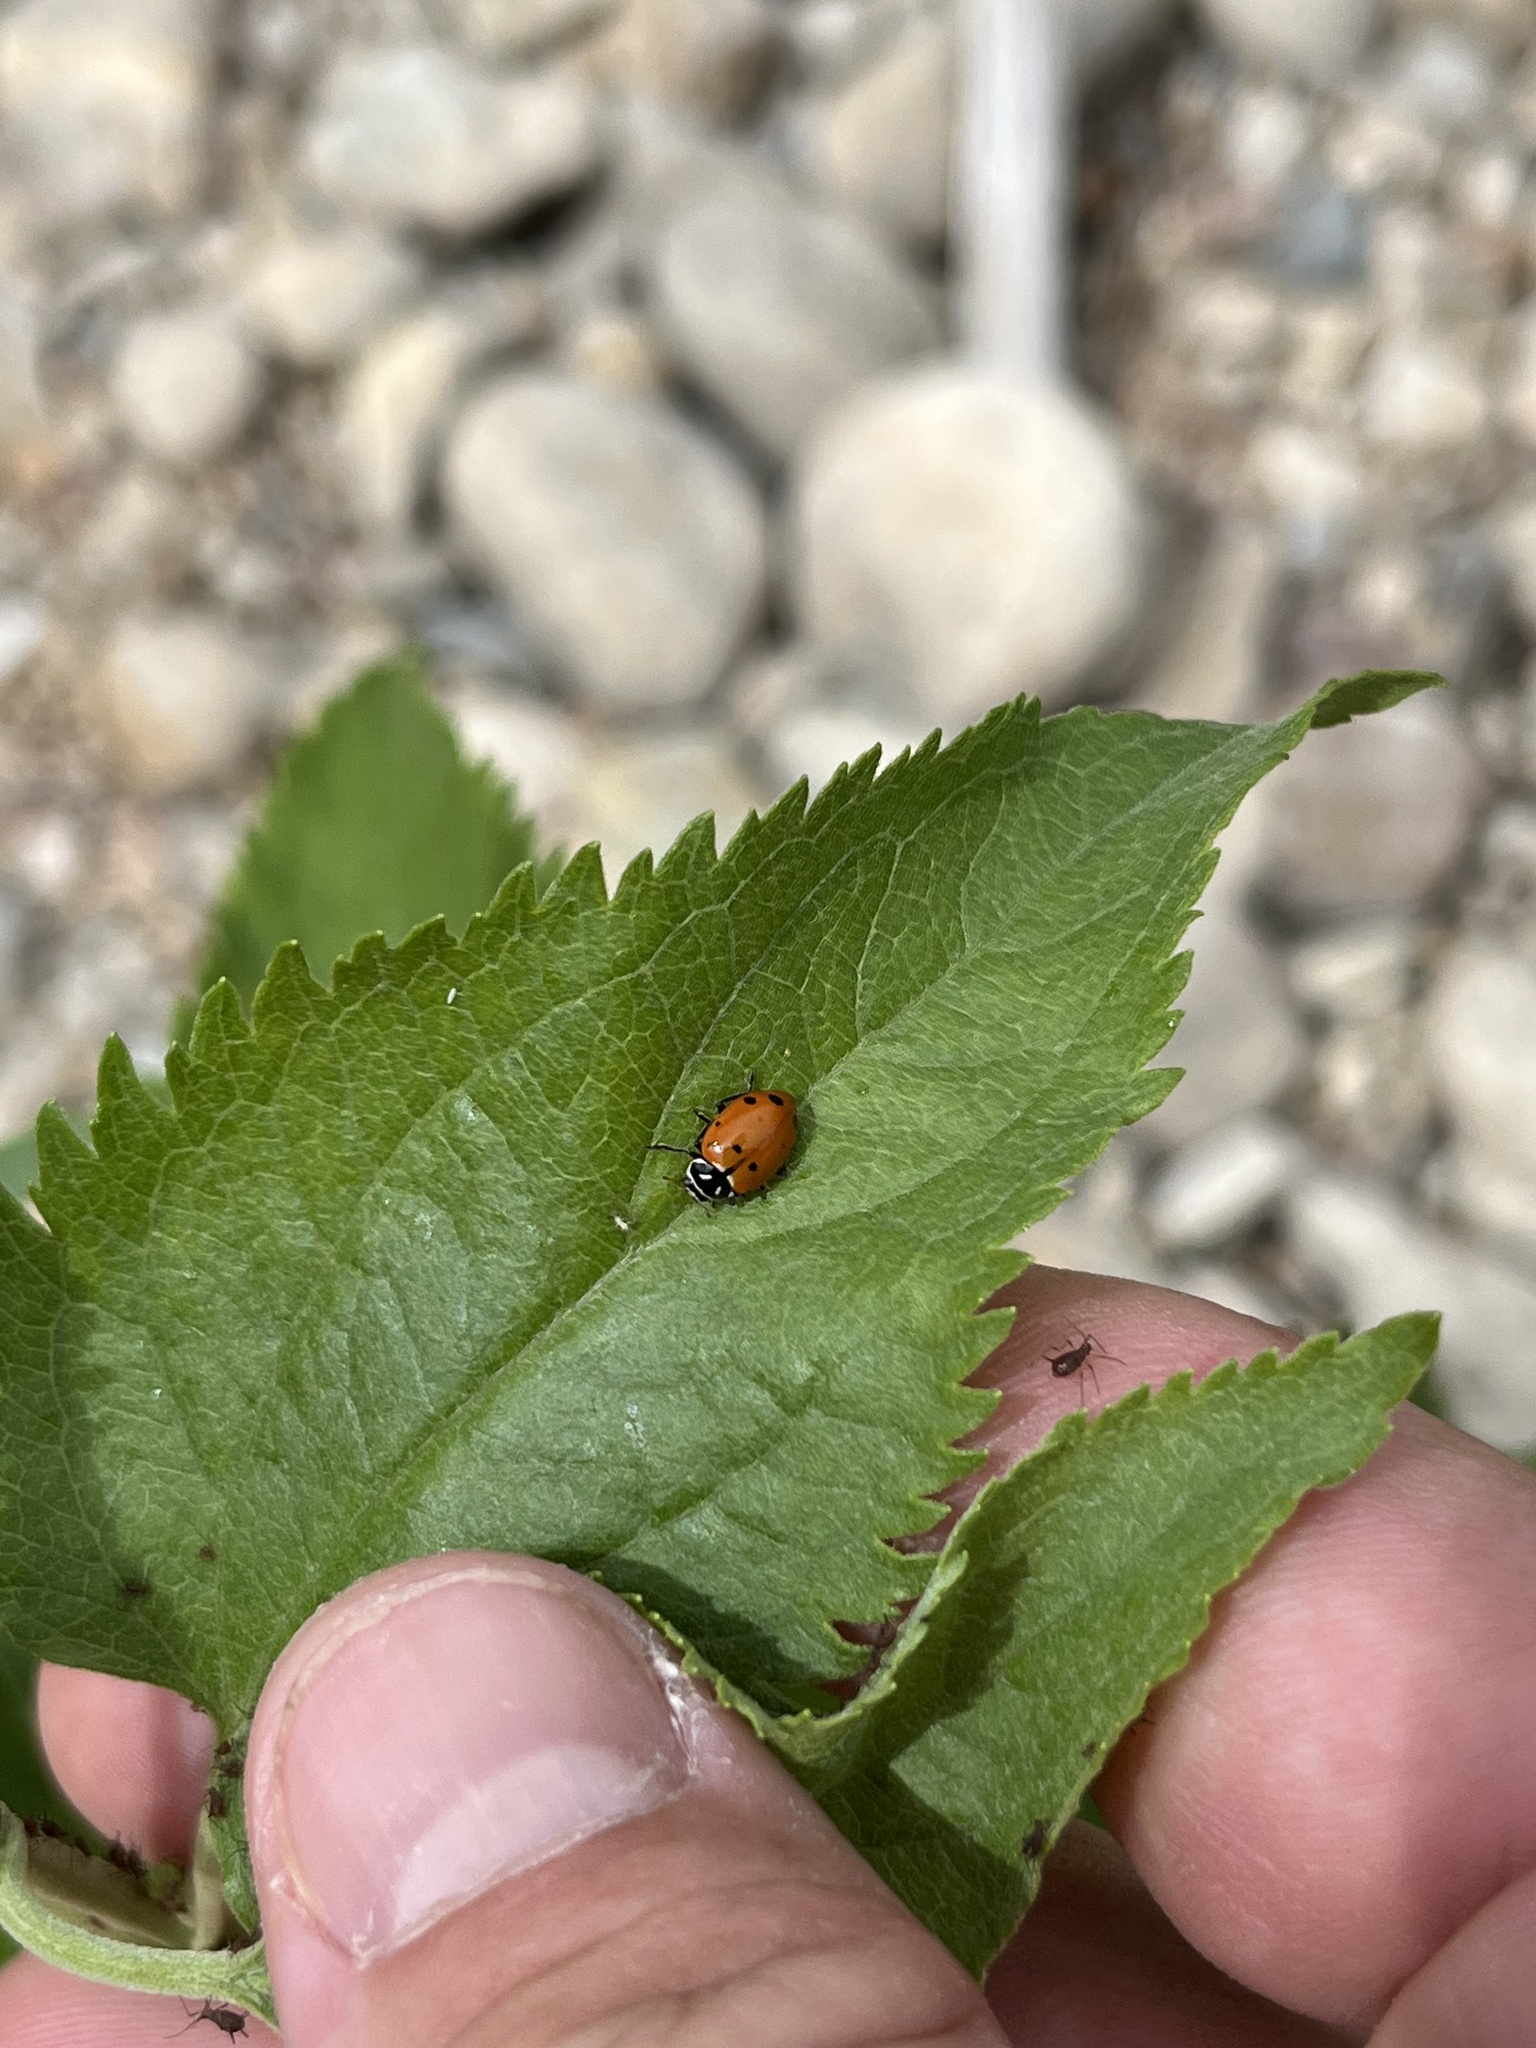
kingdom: Animalia
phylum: Arthropoda
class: Insecta
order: Coleoptera
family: Coccinellidae
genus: Hippodamia
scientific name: Hippodamia convergens
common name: Convergent lady beetle
